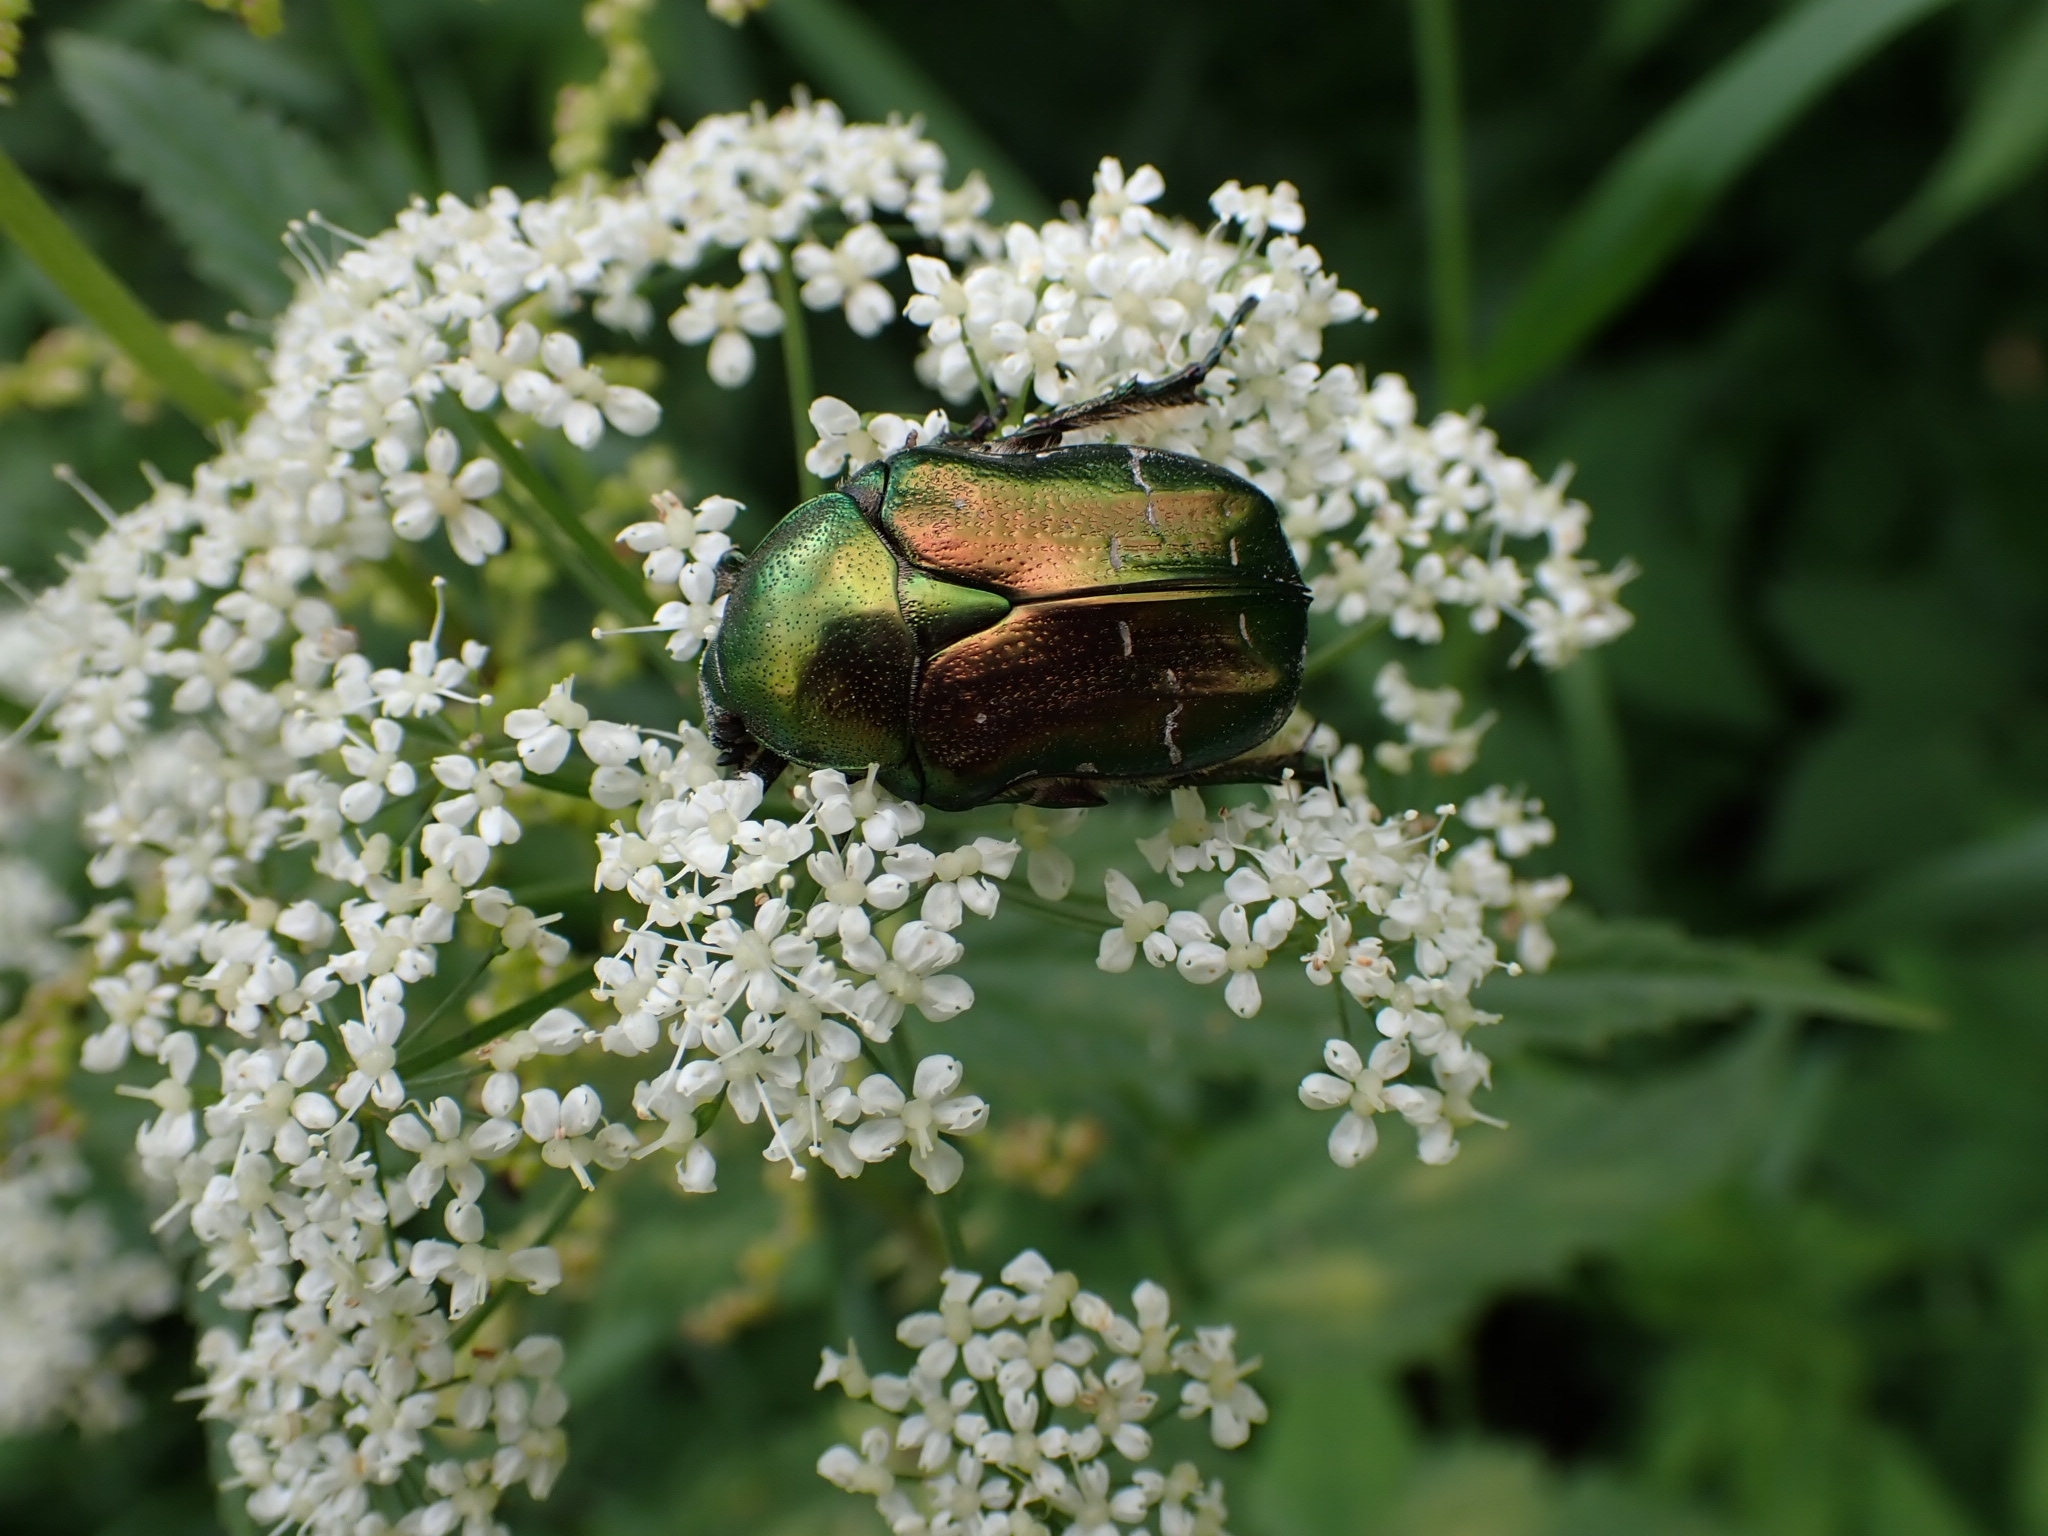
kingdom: Animalia
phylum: Arthropoda
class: Insecta
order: Coleoptera
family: Scarabaeidae
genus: Cetonia
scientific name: Cetonia aurata
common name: Rose chafer
